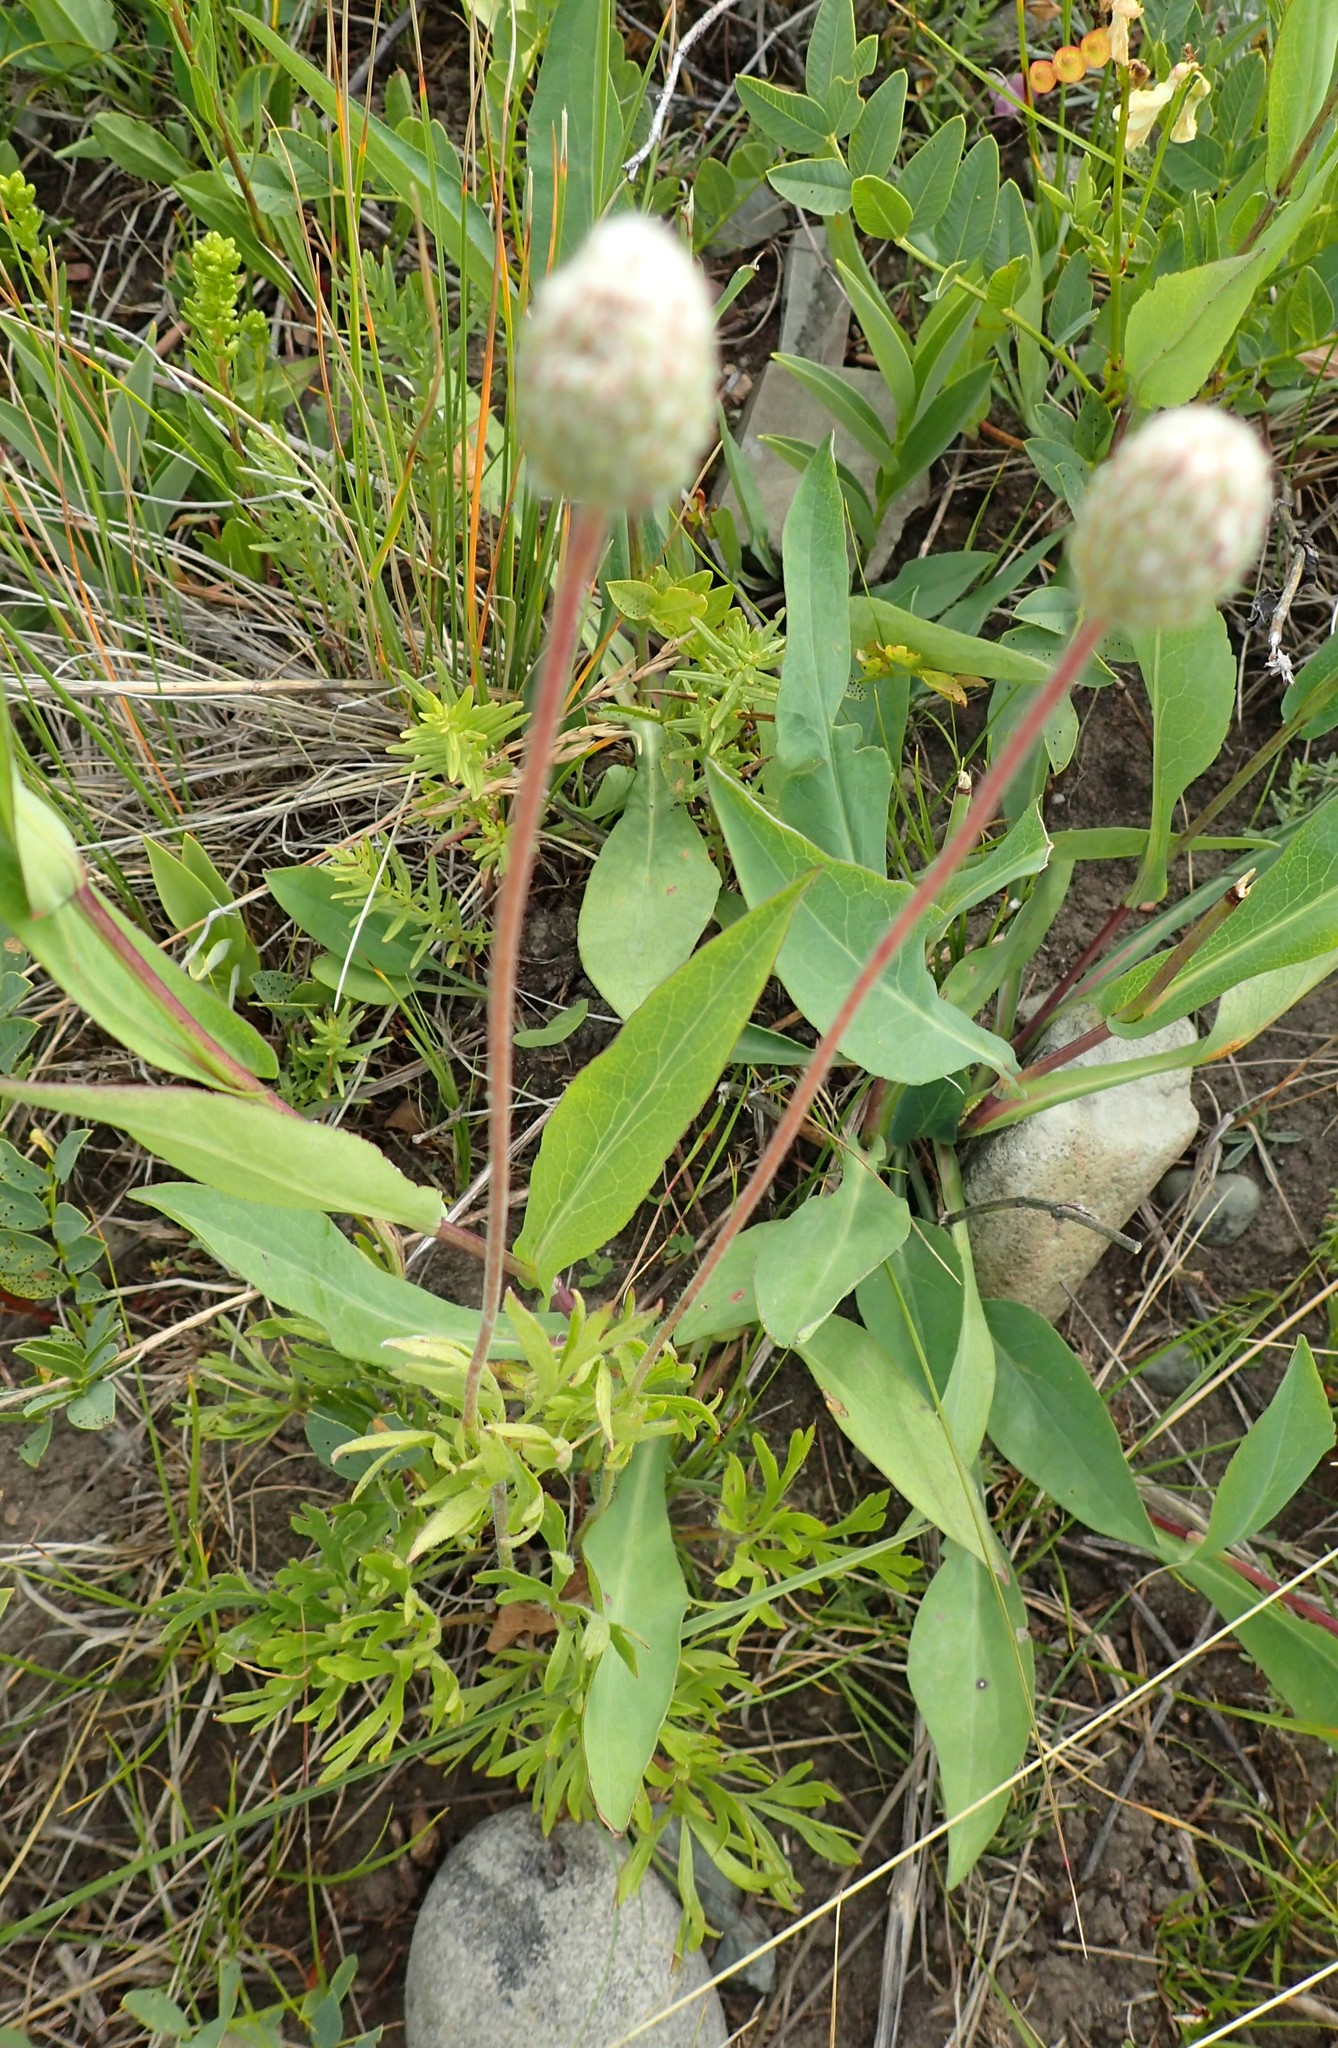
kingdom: Plantae
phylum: Tracheophyta
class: Magnoliopsida
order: Ranunculales
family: Ranunculaceae
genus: Anemone
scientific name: Anemone multifida
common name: Bird's-foot anemone
